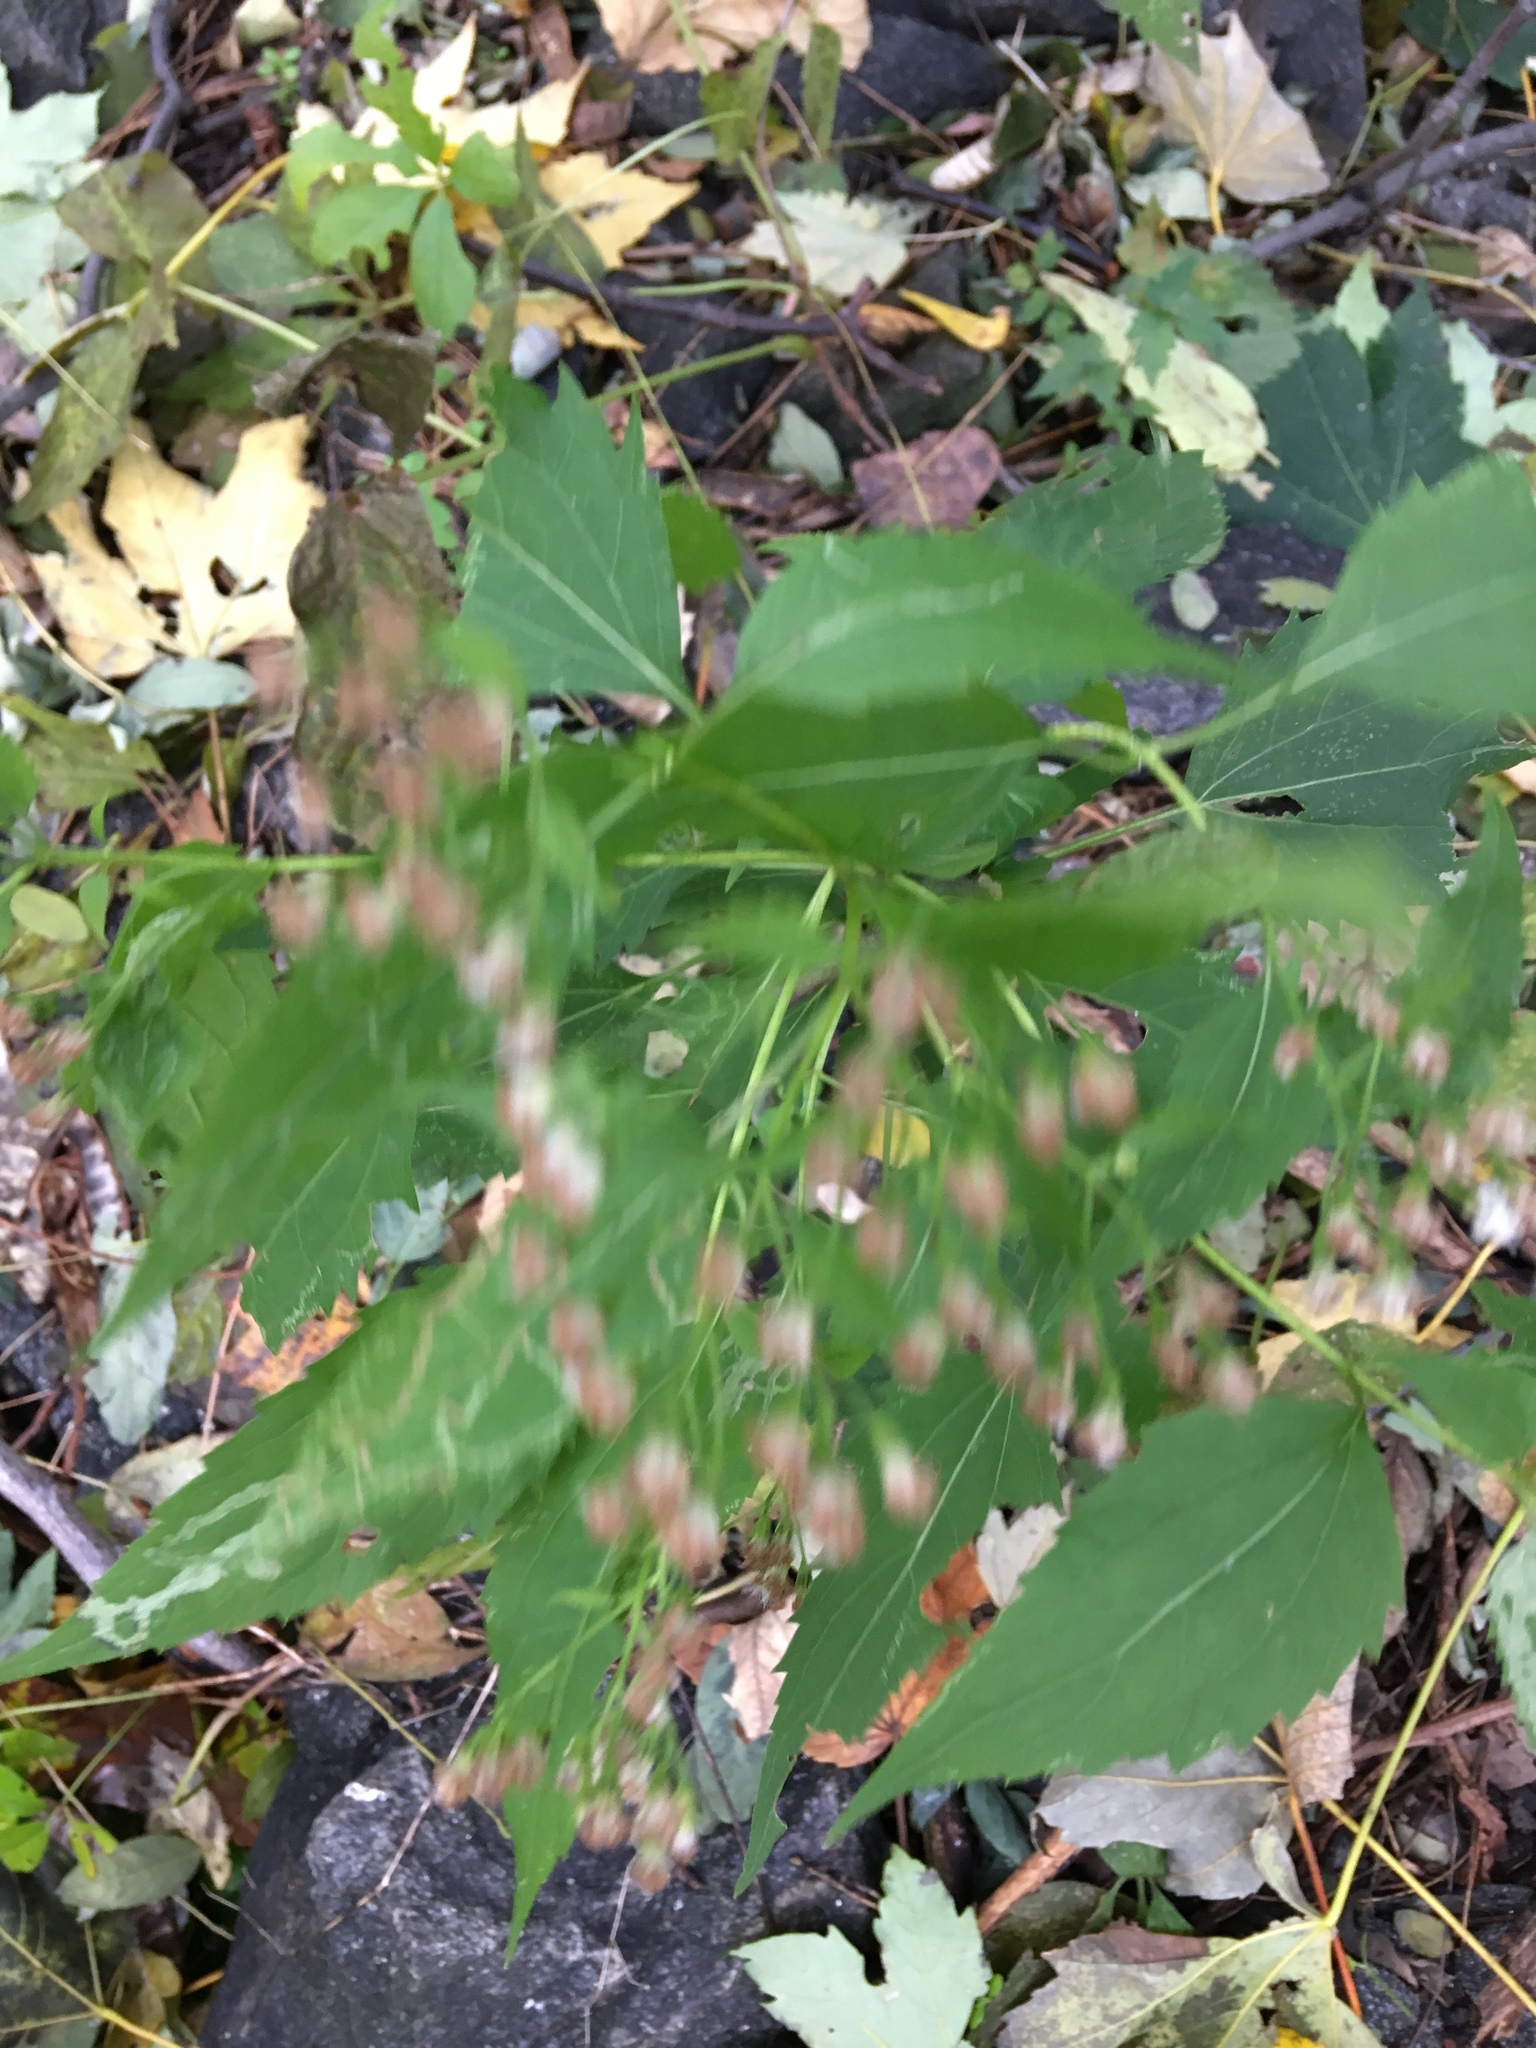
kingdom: Plantae
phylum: Tracheophyta
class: Magnoliopsida
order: Asterales
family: Asteraceae
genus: Ageratina
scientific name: Ageratina altissima
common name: White snakeroot
